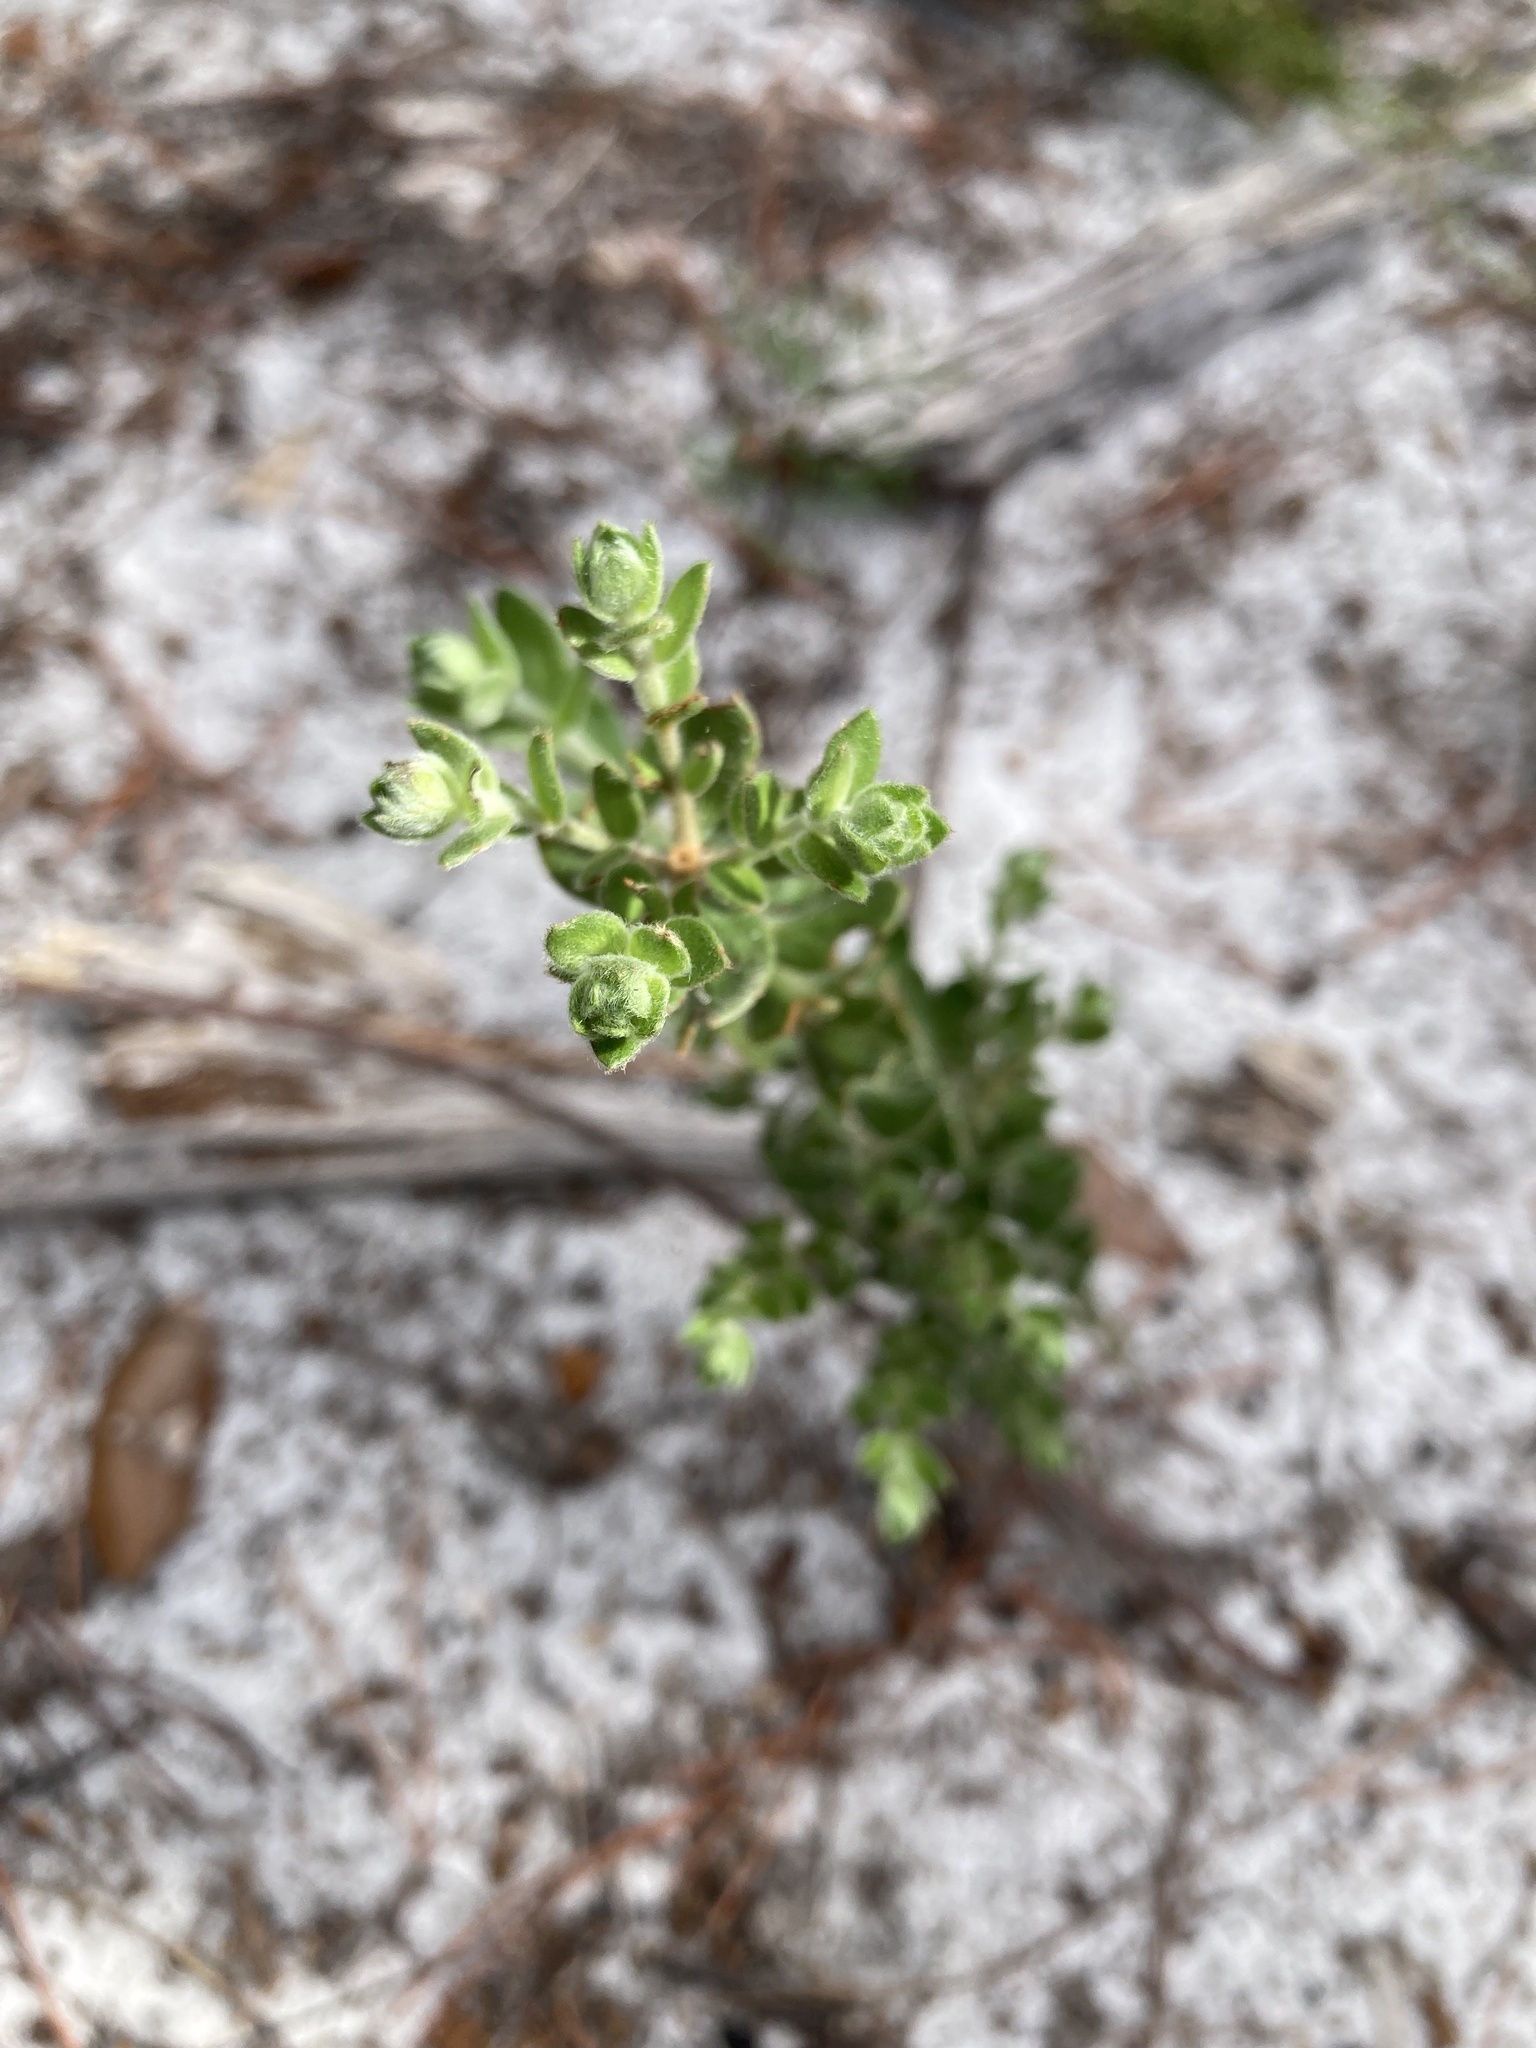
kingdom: Plantae
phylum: Tracheophyta
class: Magnoliopsida
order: Malvales
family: Cistaceae
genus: Lechea
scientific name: Lechea cernua
